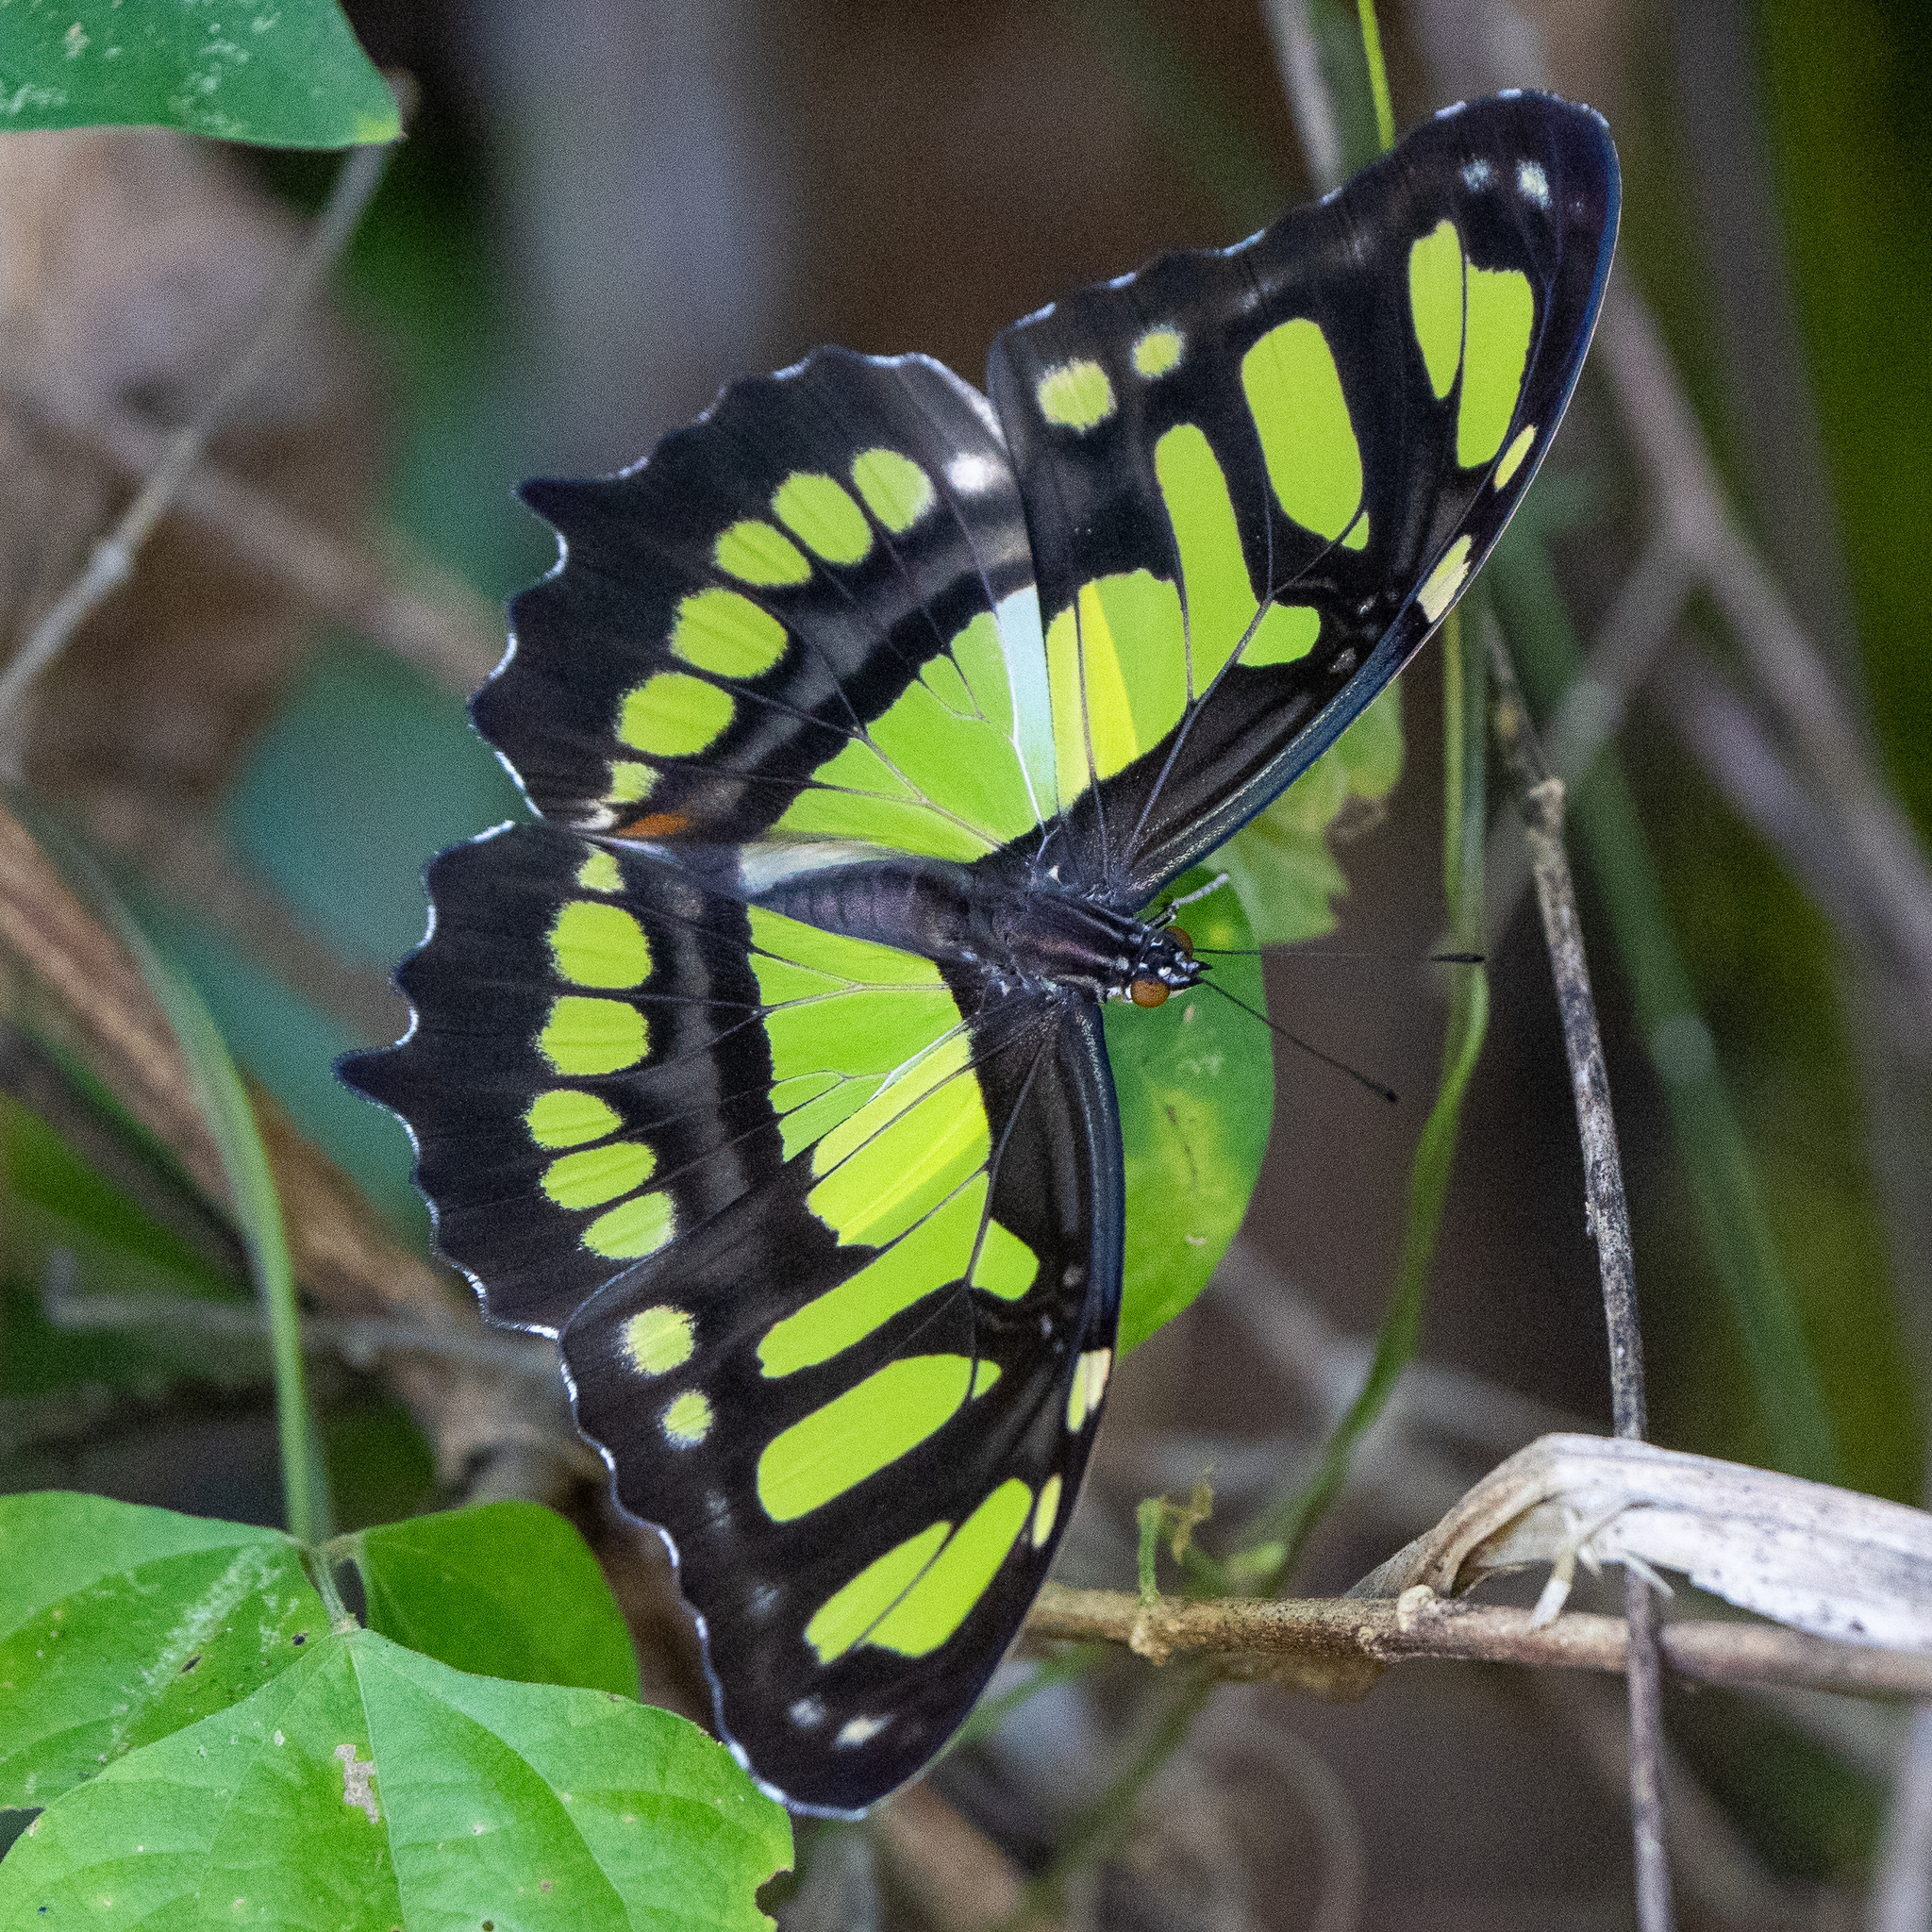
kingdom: Animalia
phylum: Arthropoda
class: Insecta
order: Lepidoptera
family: Nymphalidae
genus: Siproeta
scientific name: Siproeta stelenes
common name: Malachite
